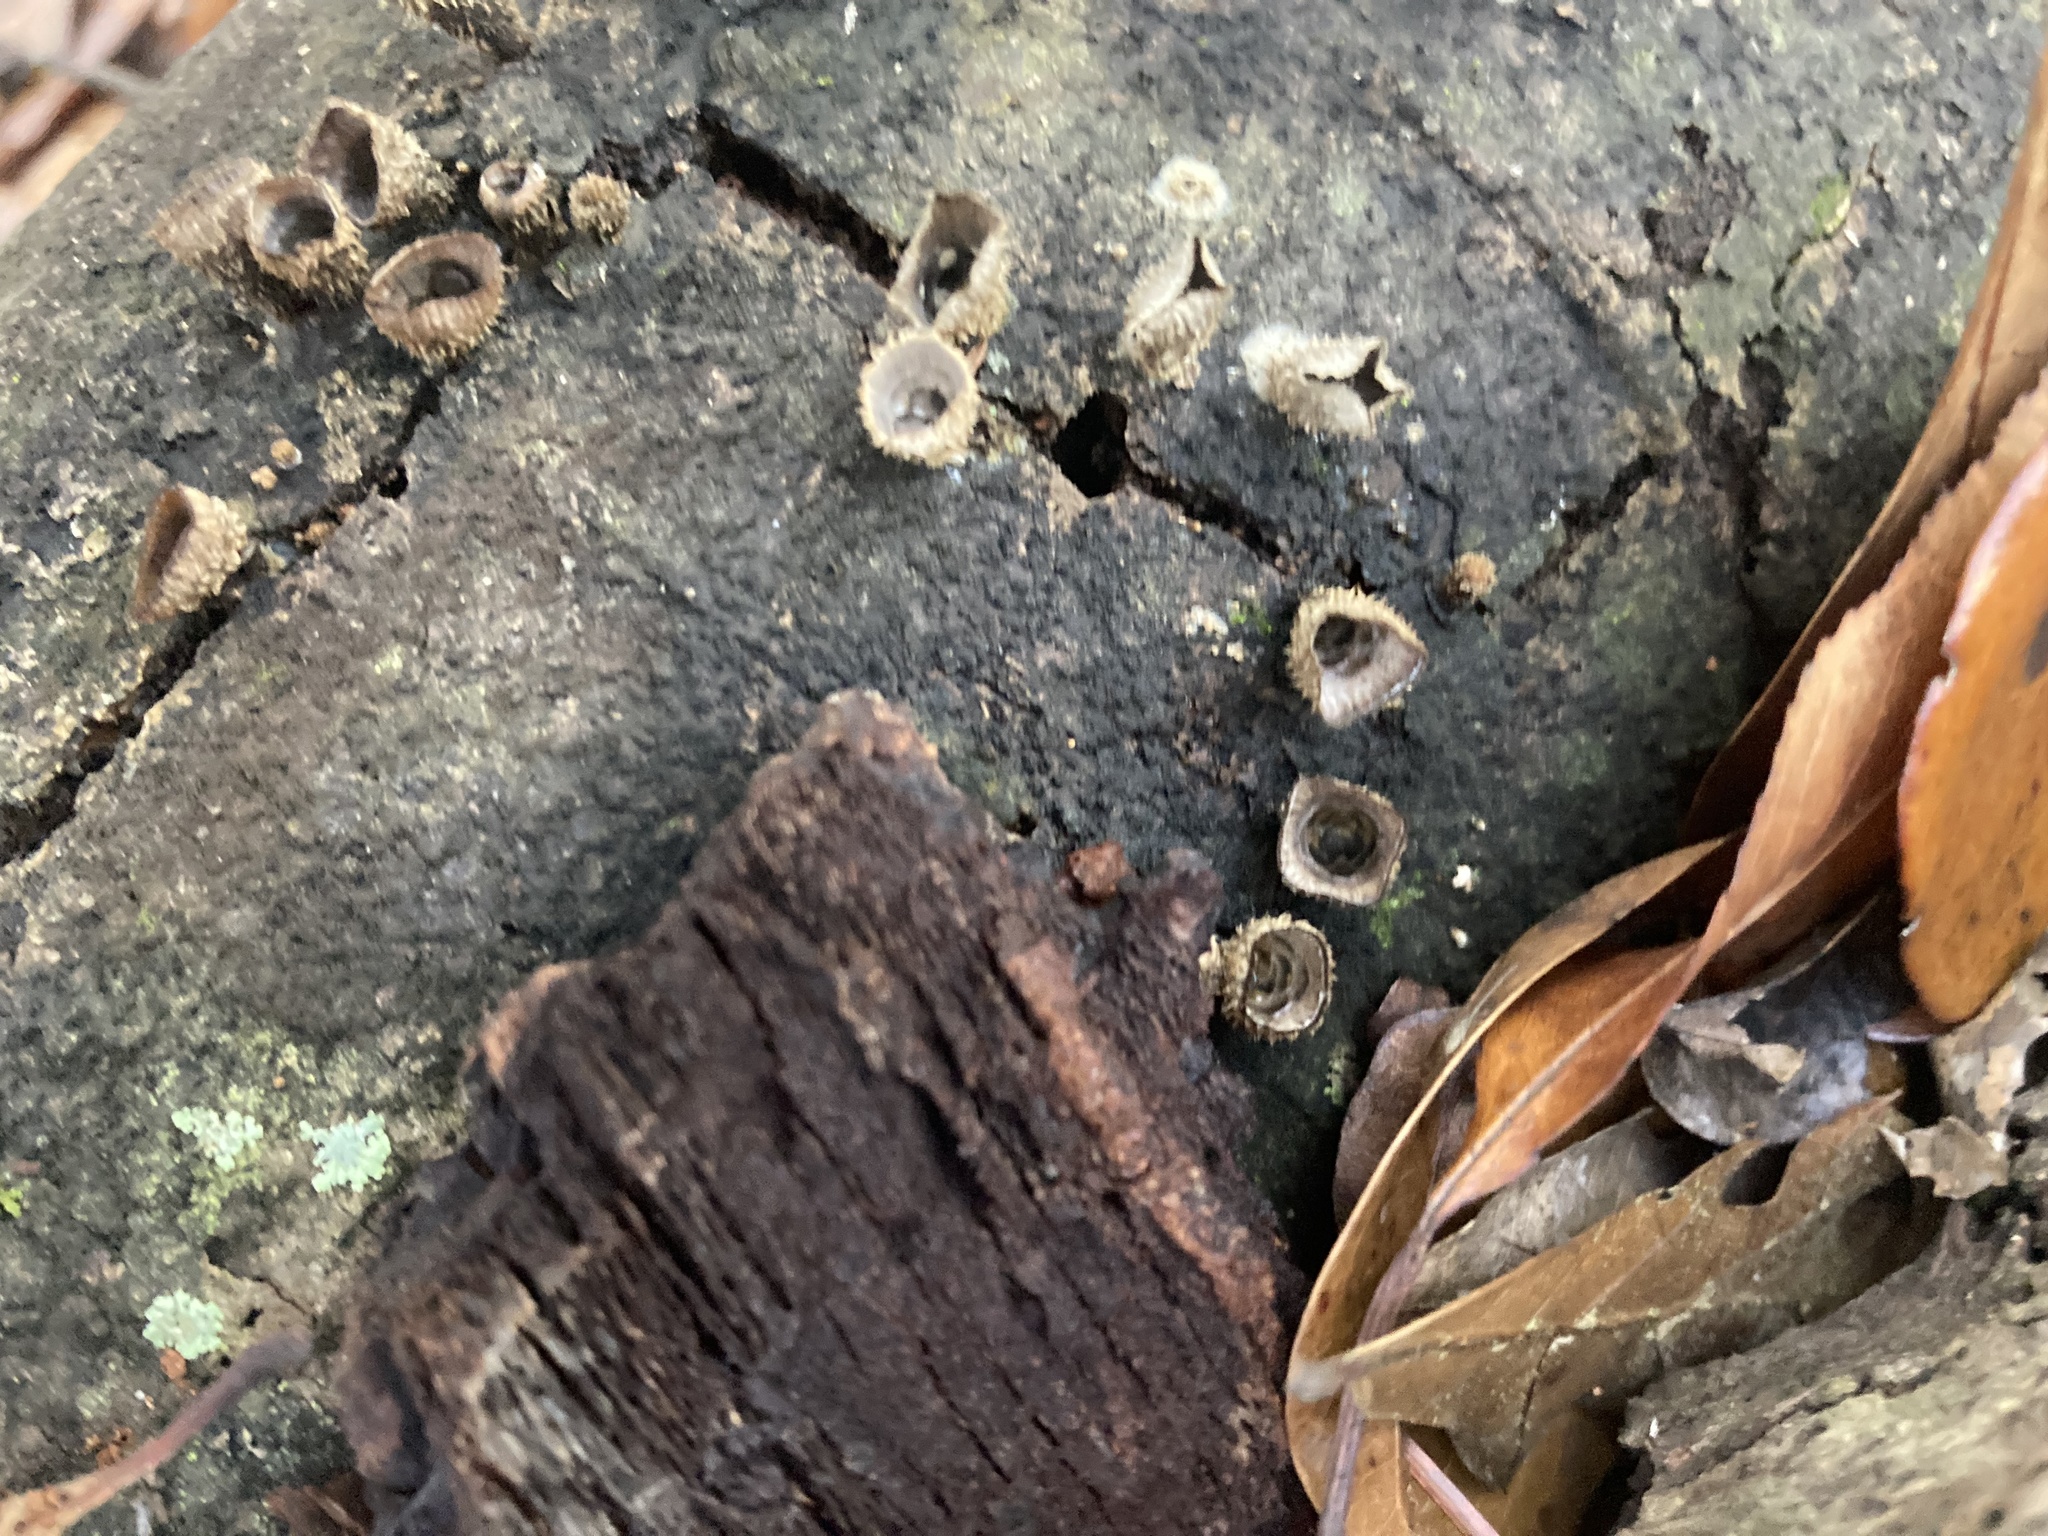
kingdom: Fungi
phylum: Basidiomycota
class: Agaricomycetes
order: Agaricales
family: Agaricaceae
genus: Cyathus
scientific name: Cyathus striatus
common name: Fluted bird's nest
